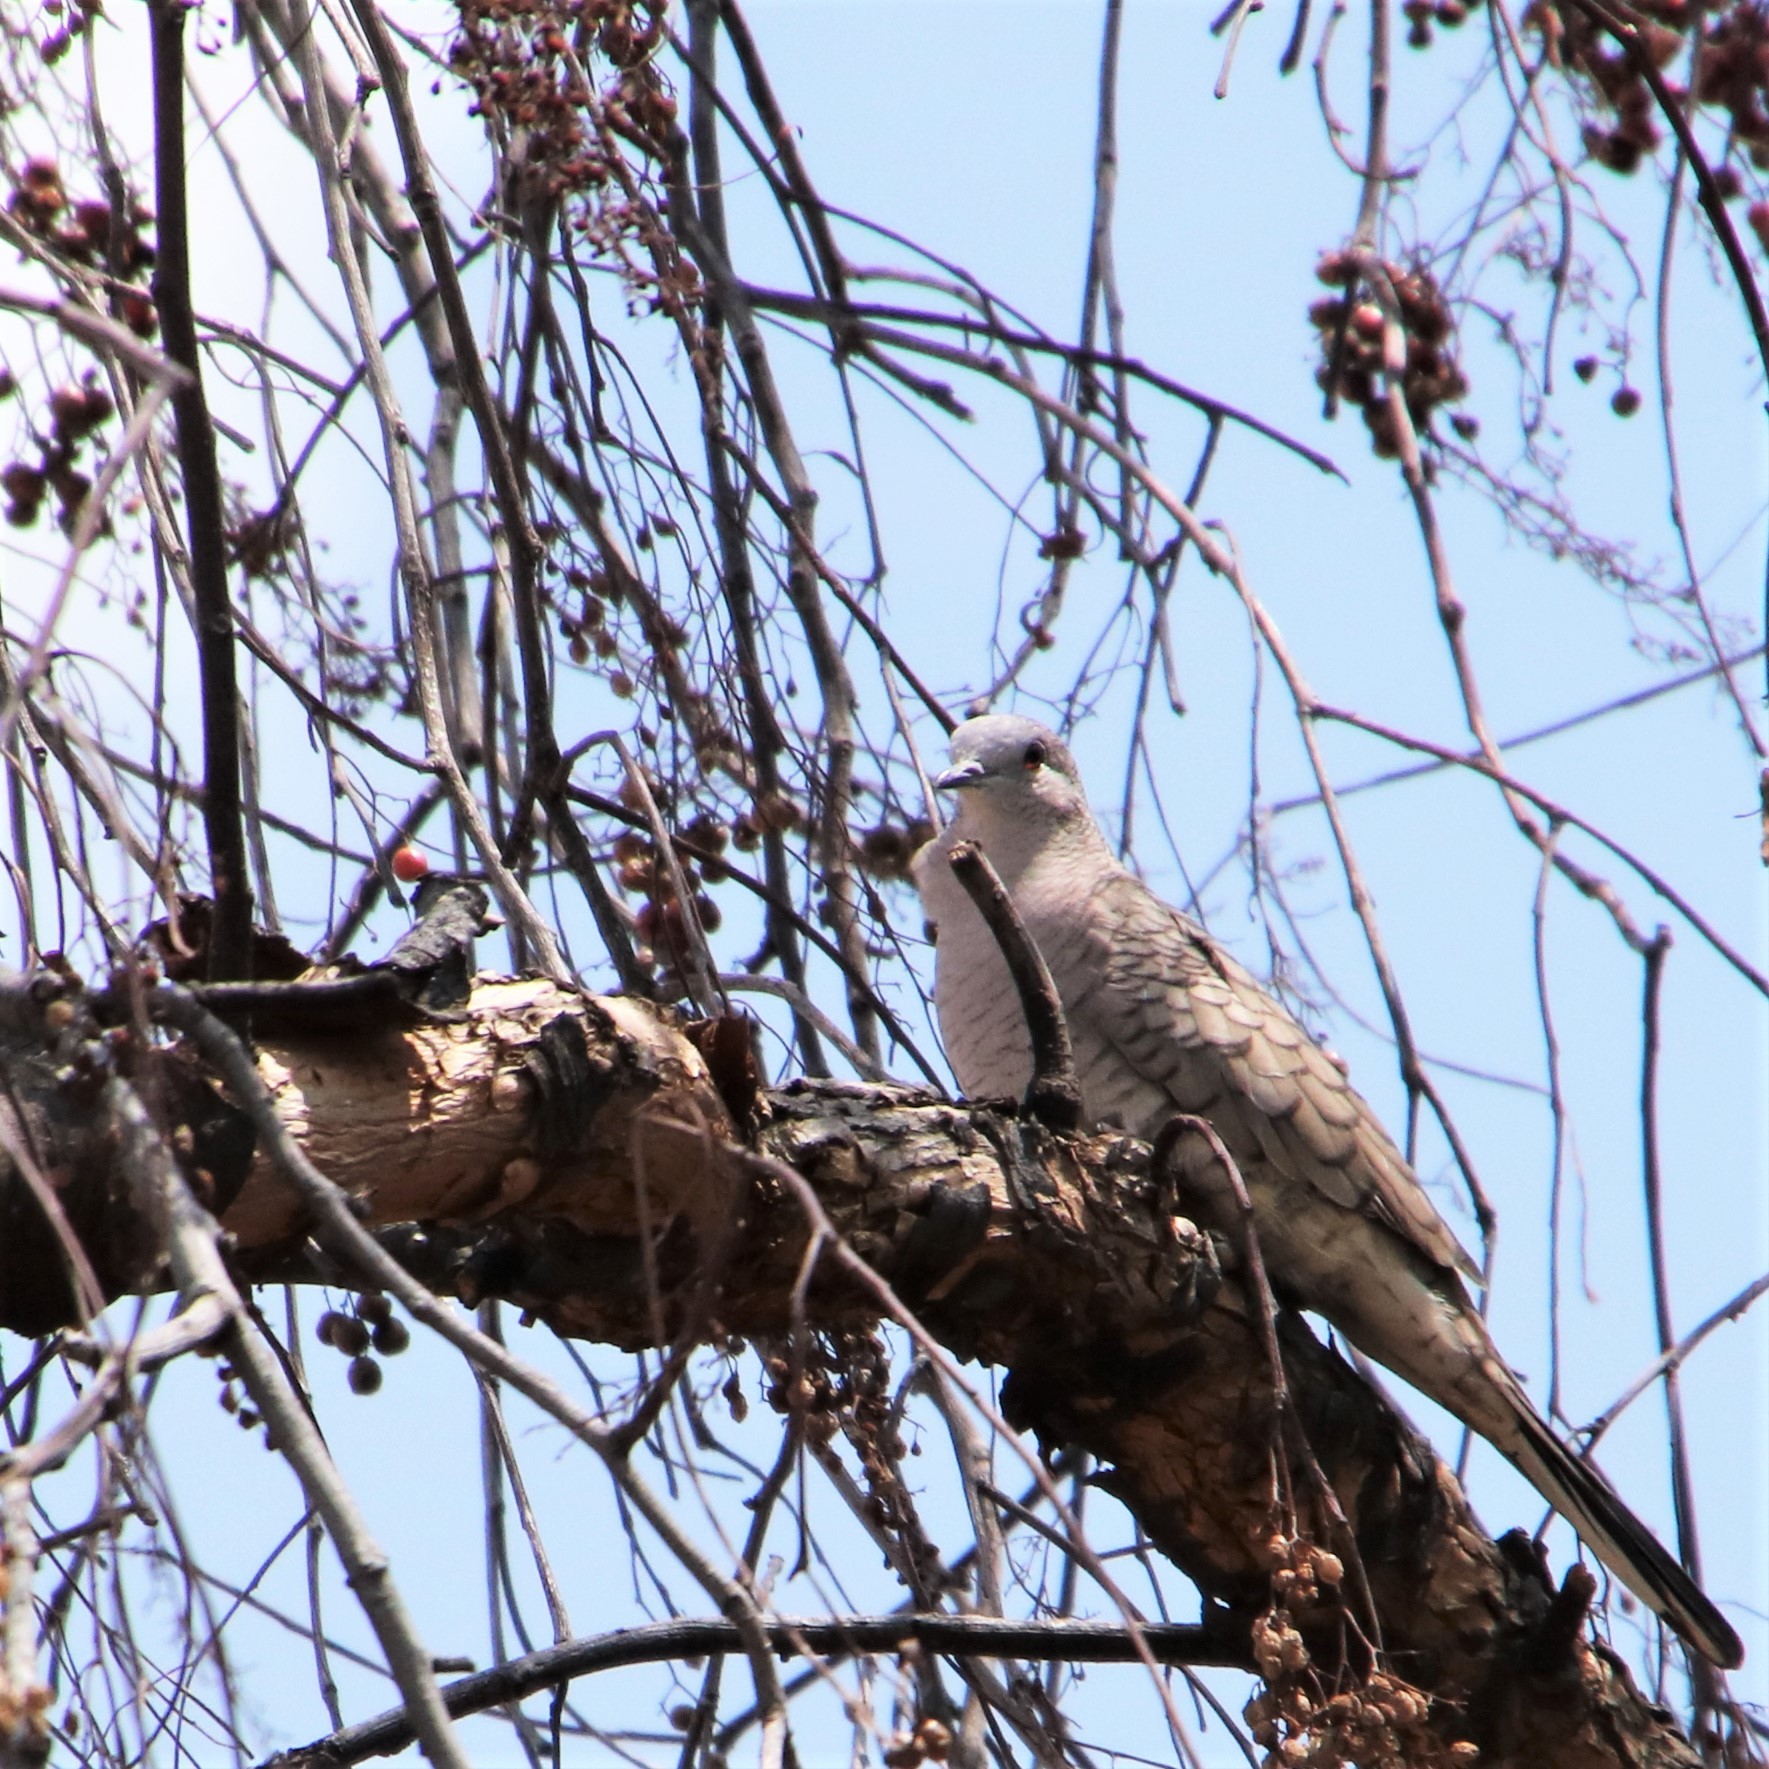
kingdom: Animalia
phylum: Chordata
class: Aves
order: Columbiformes
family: Columbidae
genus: Columbina
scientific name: Columbina inca
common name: Inca dove
